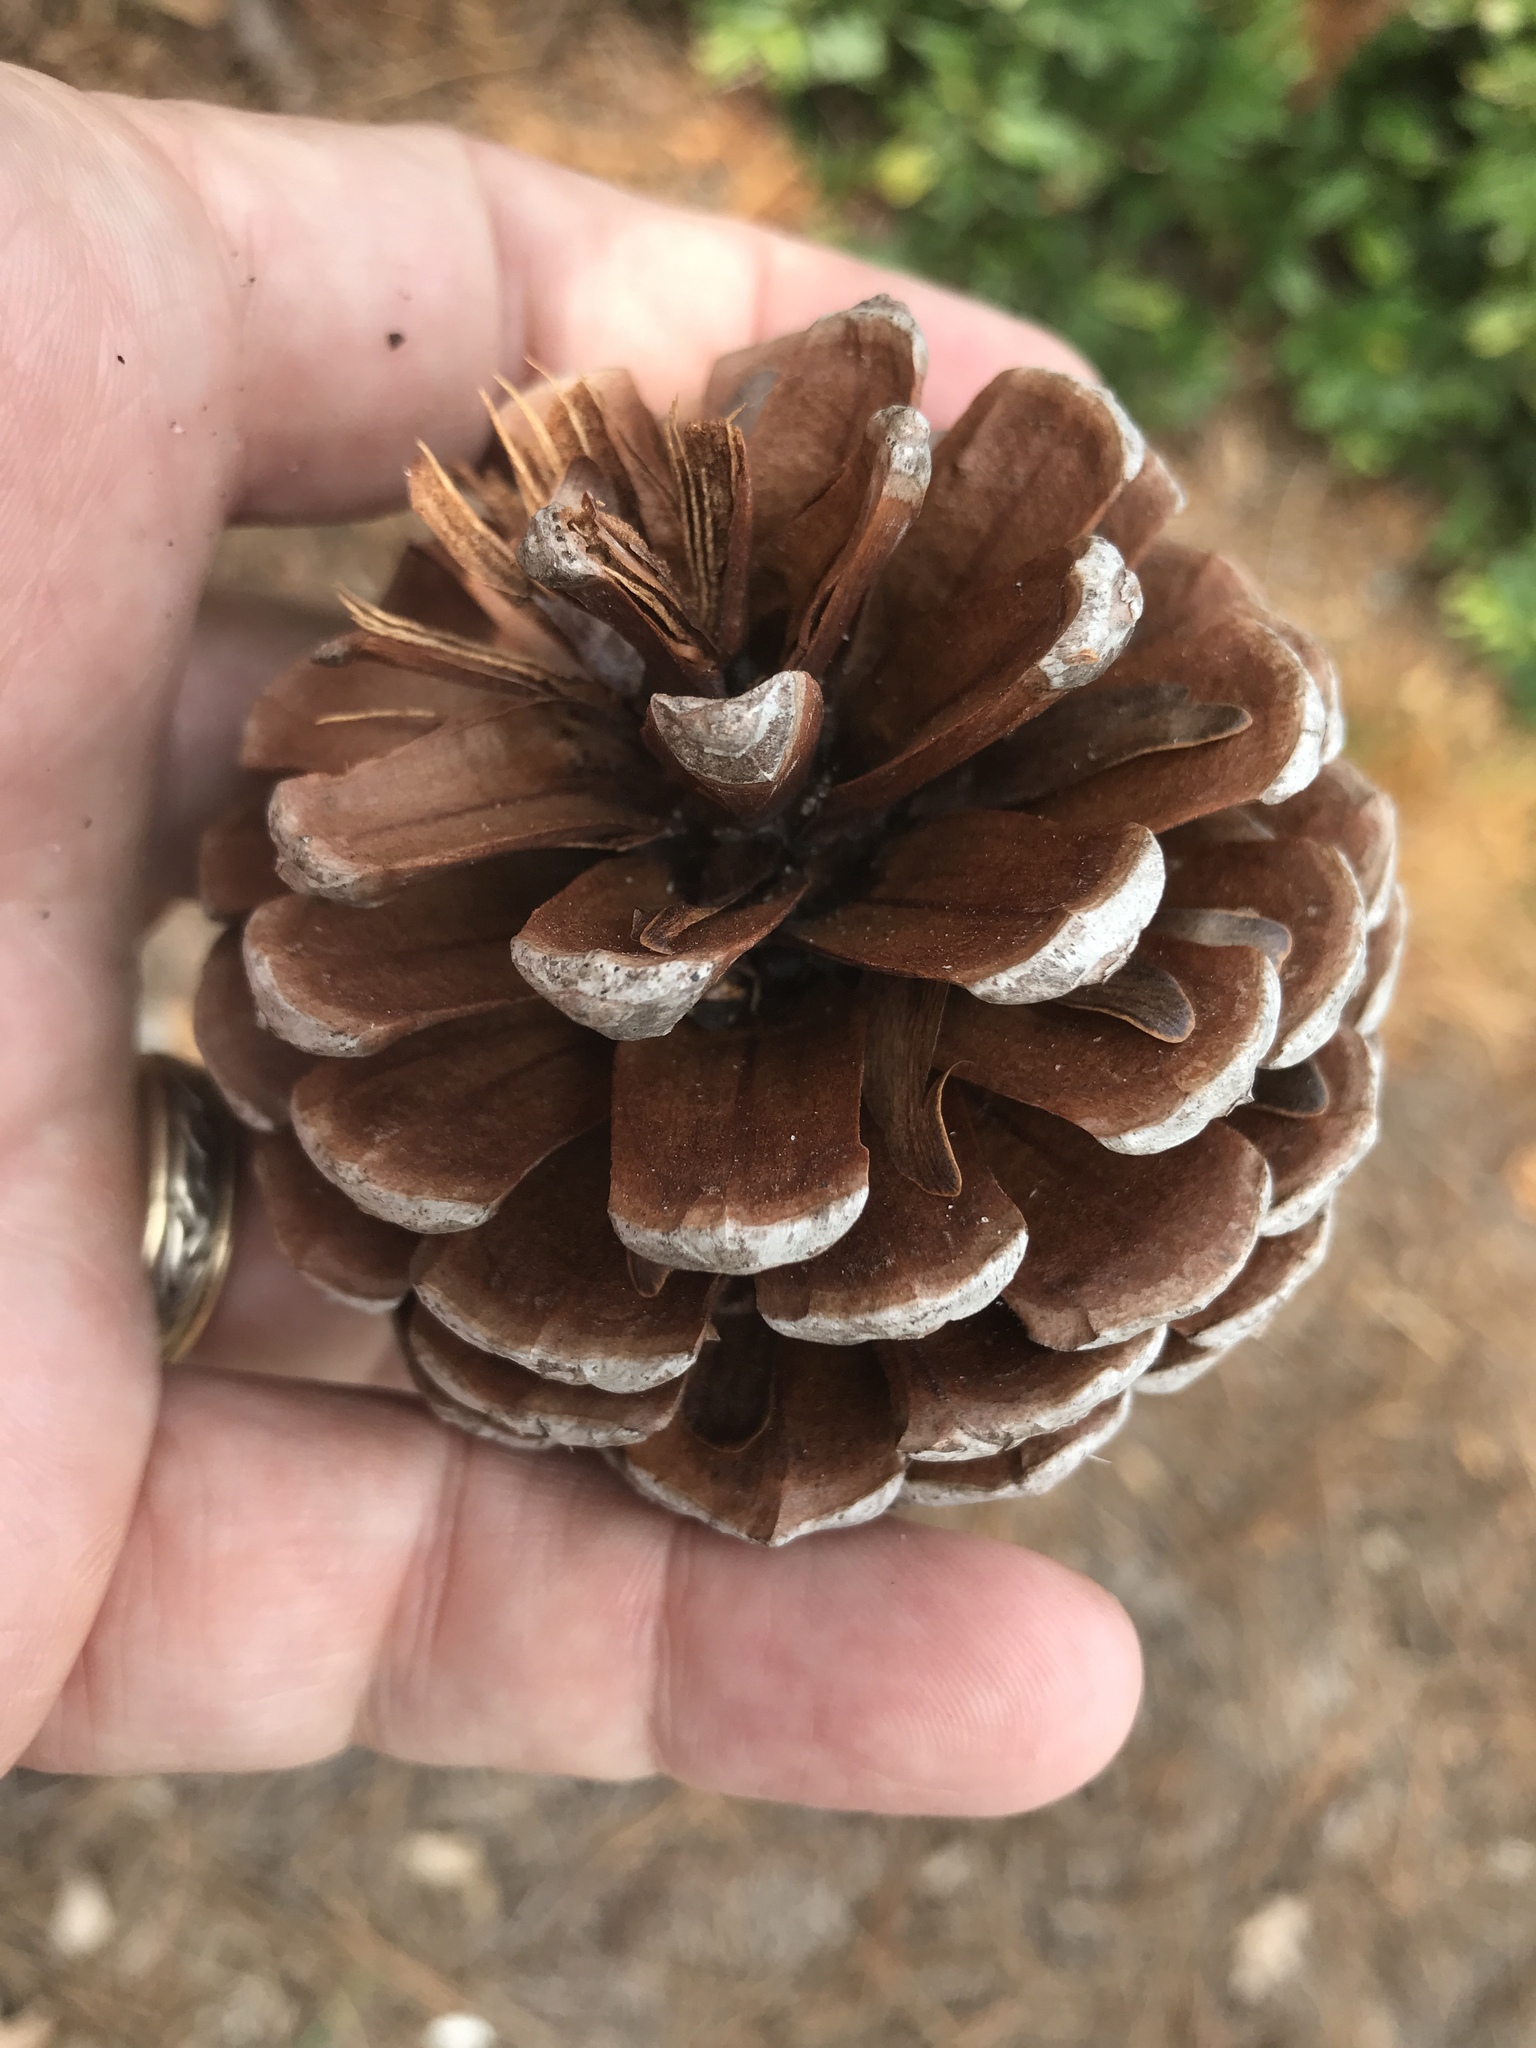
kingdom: Plantae
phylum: Tracheophyta
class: Pinopsida
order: Pinales
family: Pinaceae
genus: Pinus
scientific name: Pinus serotina
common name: Marsh pine
